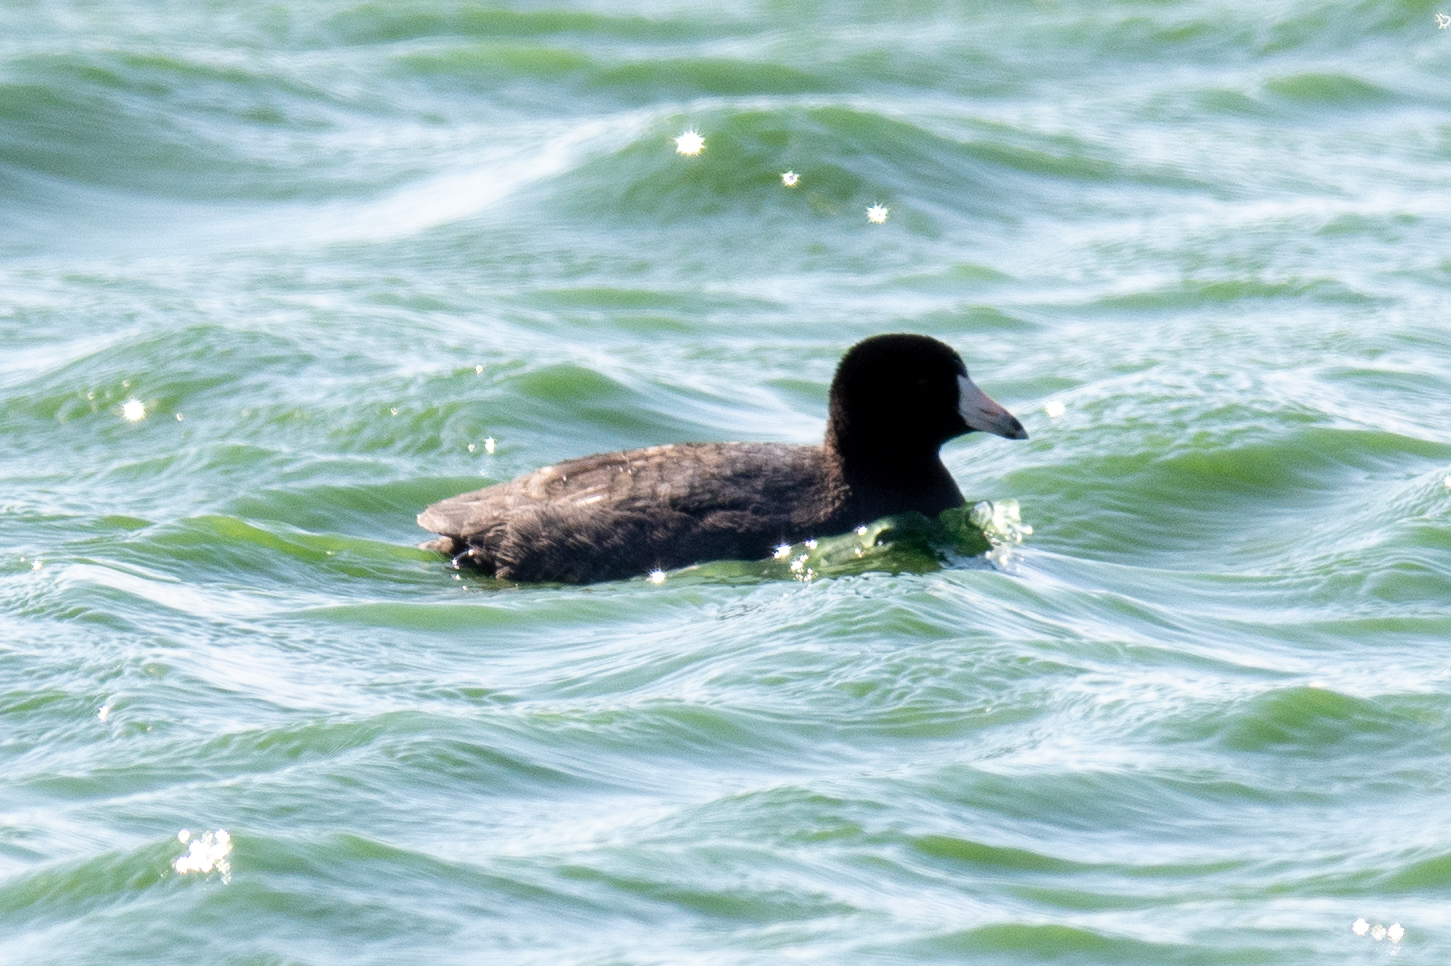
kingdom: Animalia
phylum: Chordata
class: Aves
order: Gruiformes
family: Rallidae
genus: Fulica
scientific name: Fulica americana
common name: American coot
